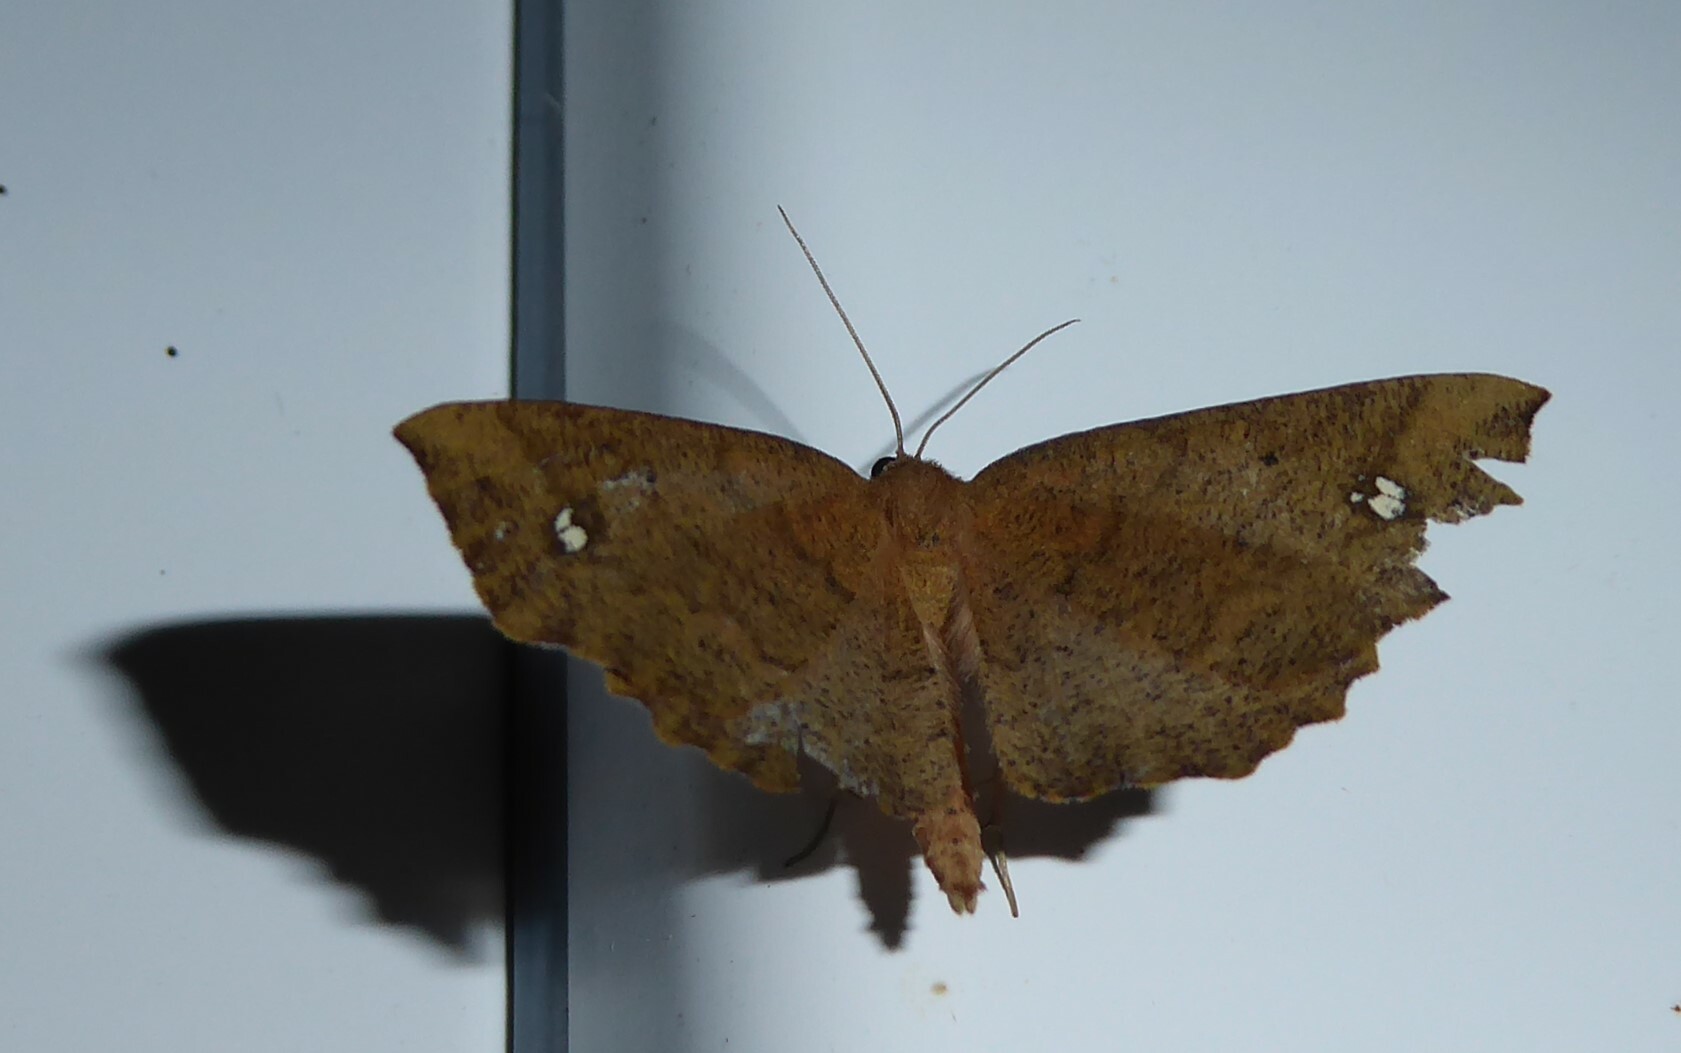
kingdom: Animalia
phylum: Arthropoda
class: Insecta
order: Lepidoptera
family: Geometridae
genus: Xyridacma
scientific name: Xyridacma ustaria
